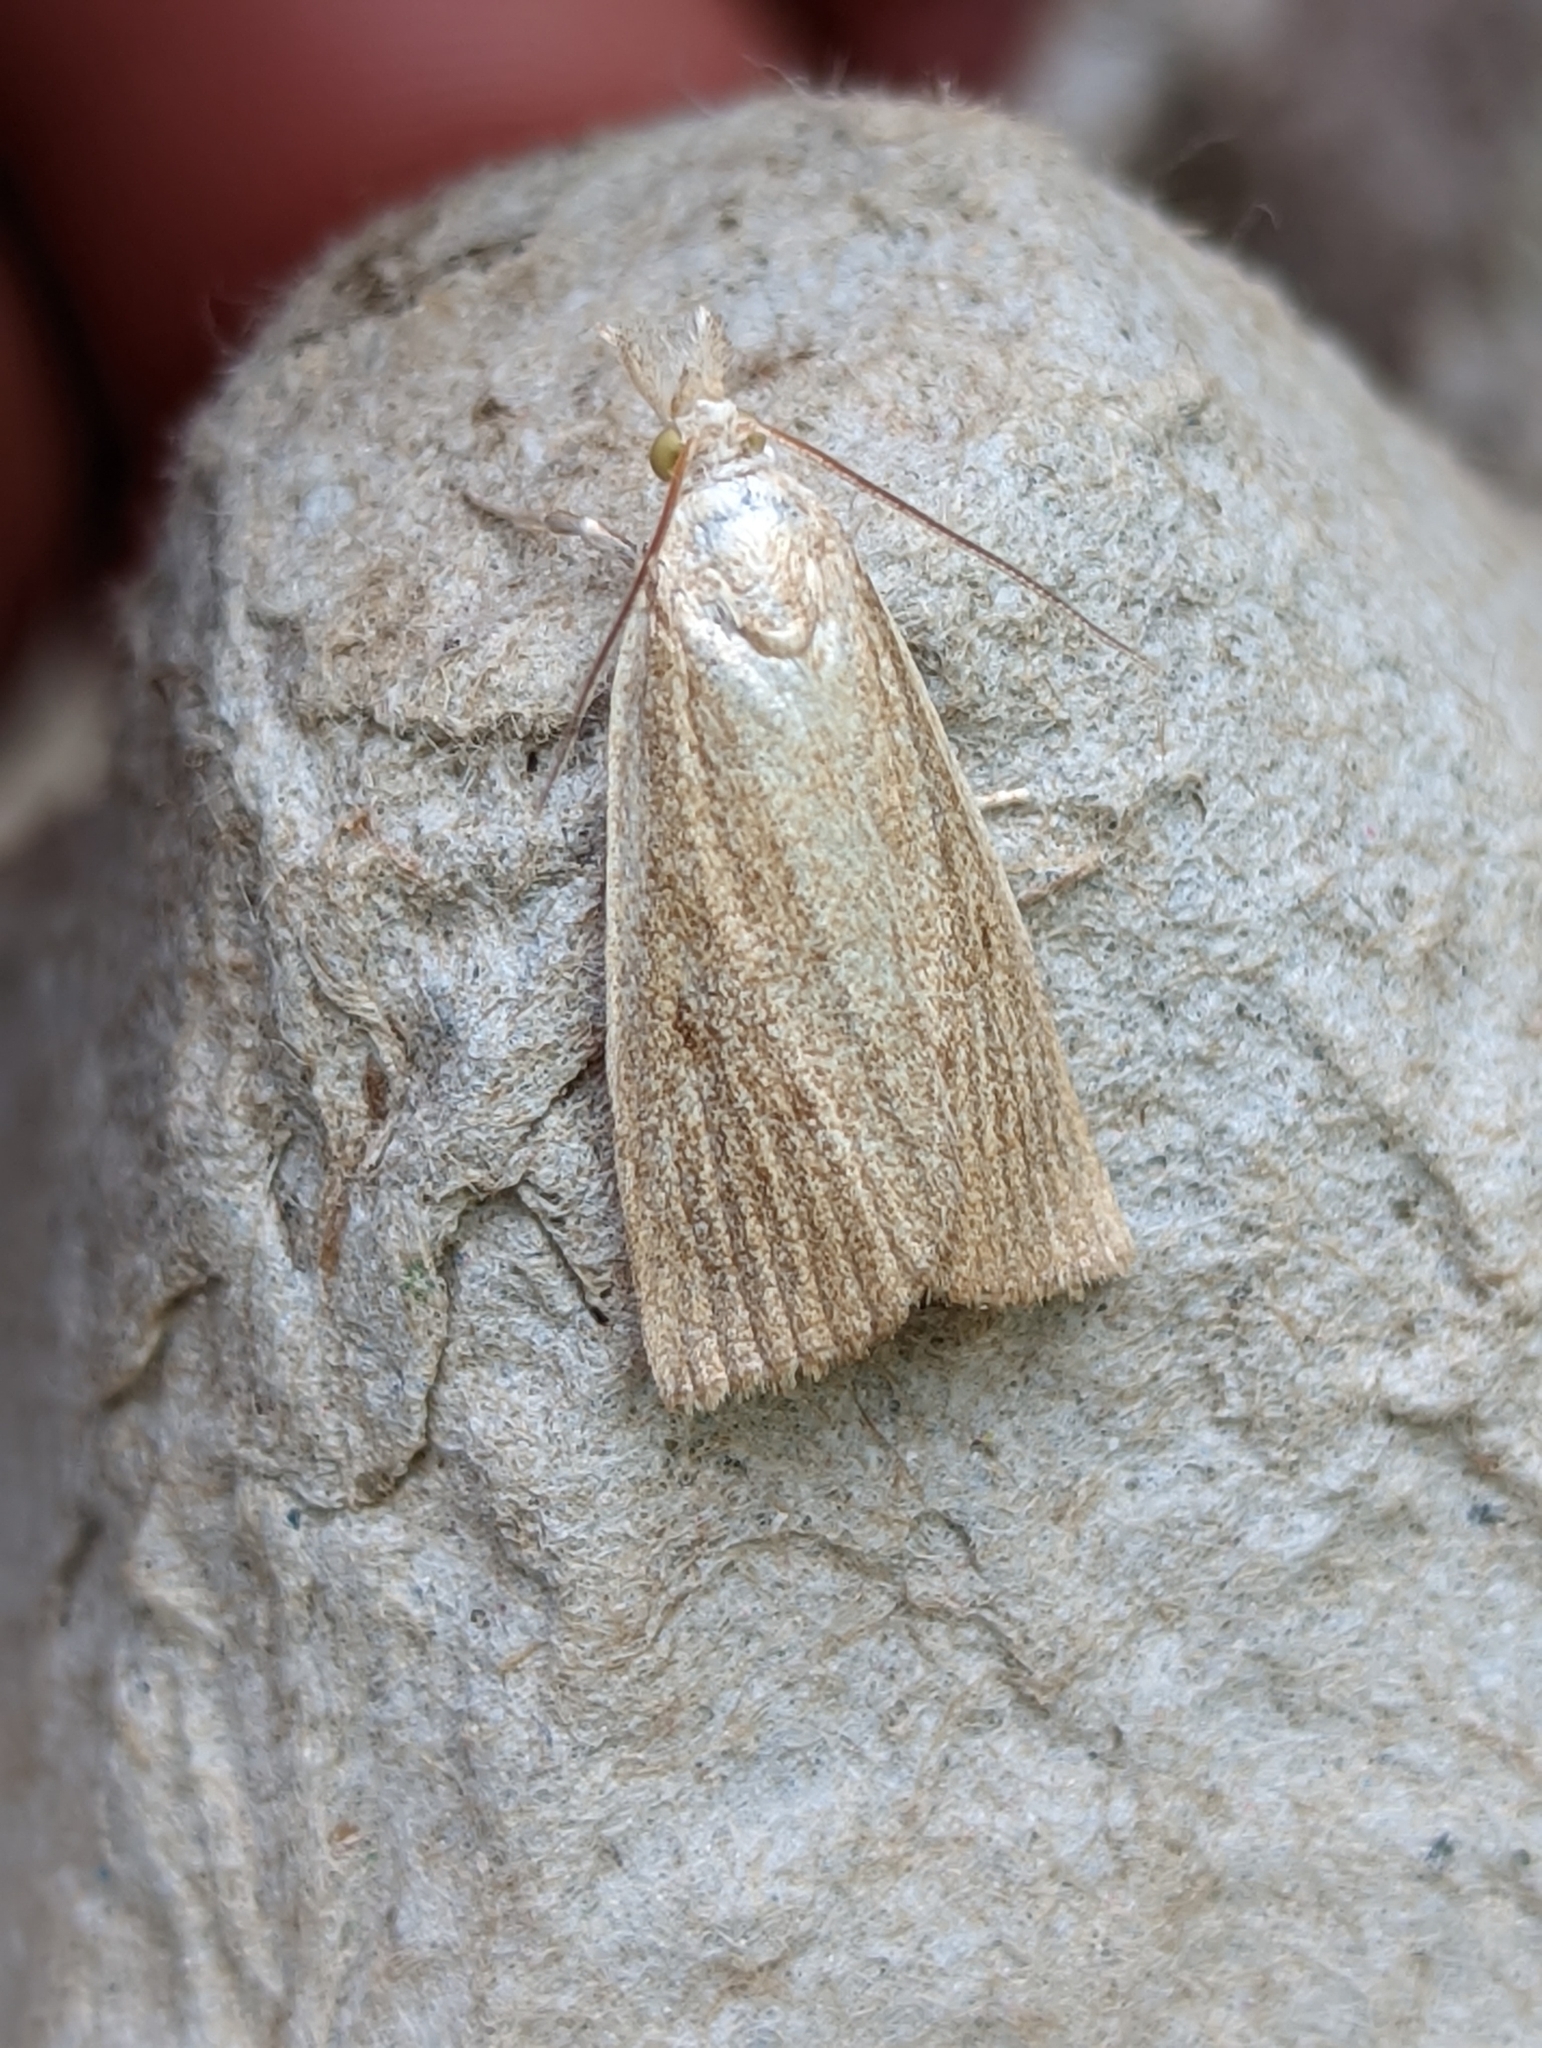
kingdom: Animalia
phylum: Arthropoda
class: Insecta
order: Lepidoptera
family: Crambidae
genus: Calamotropha
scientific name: Calamotropha paludella
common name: Bulrush veneer
